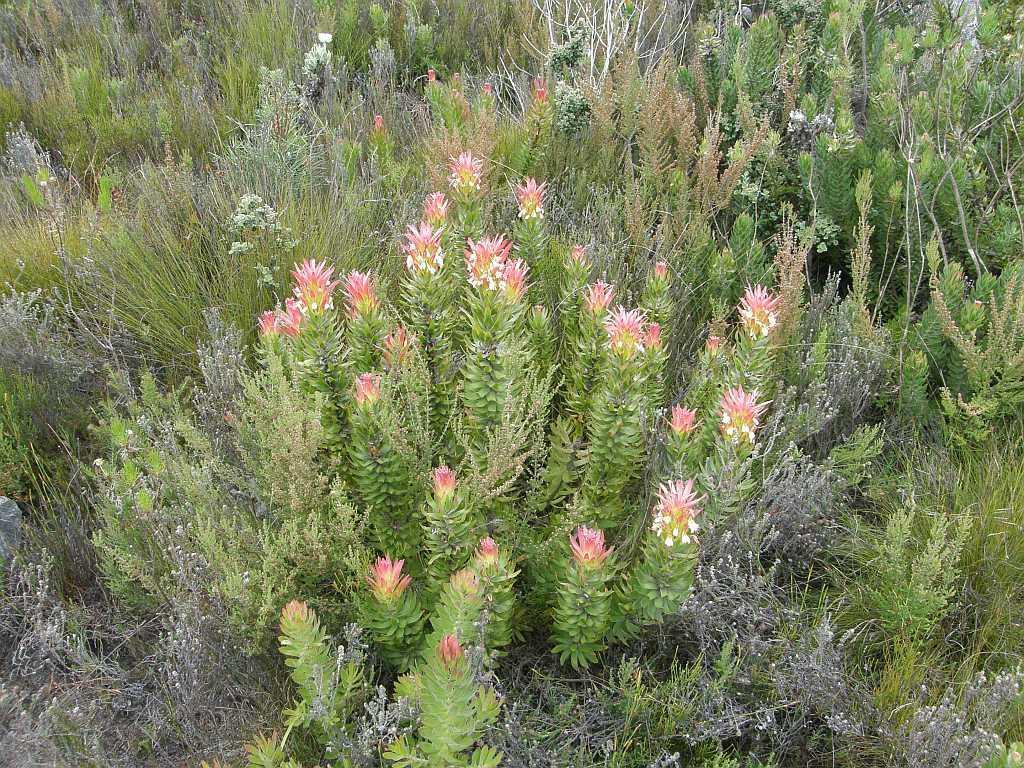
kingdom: Plantae
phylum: Tracheophyta
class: Magnoliopsida
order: Proteales
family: Proteaceae
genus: Mimetes
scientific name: Mimetes cucullatus
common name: Common pagoda
